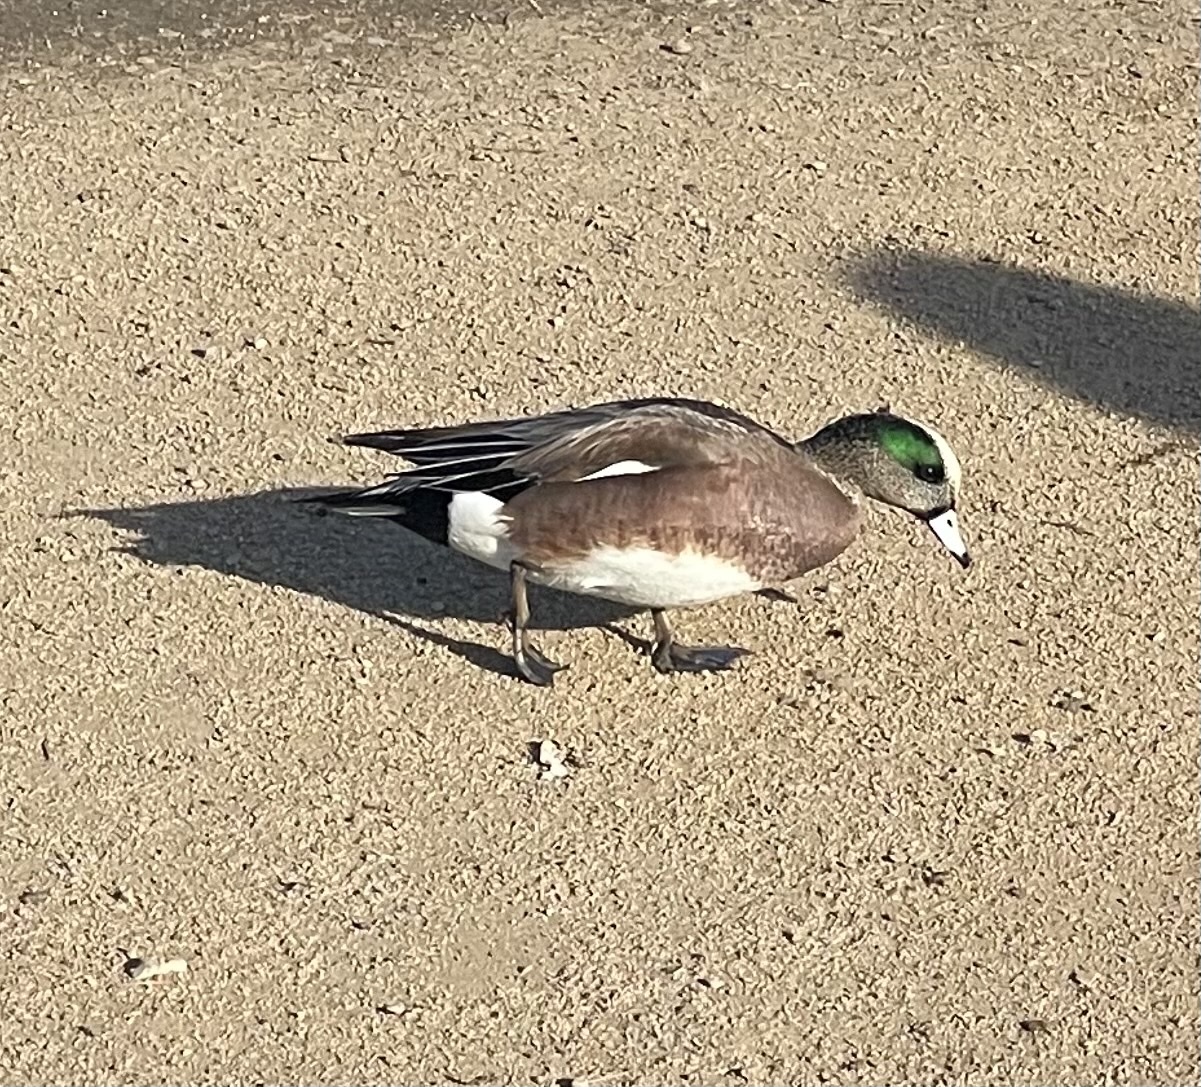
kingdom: Animalia
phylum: Chordata
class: Aves
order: Anseriformes
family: Anatidae
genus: Mareca
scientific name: Mareca americana
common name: American wigeon
